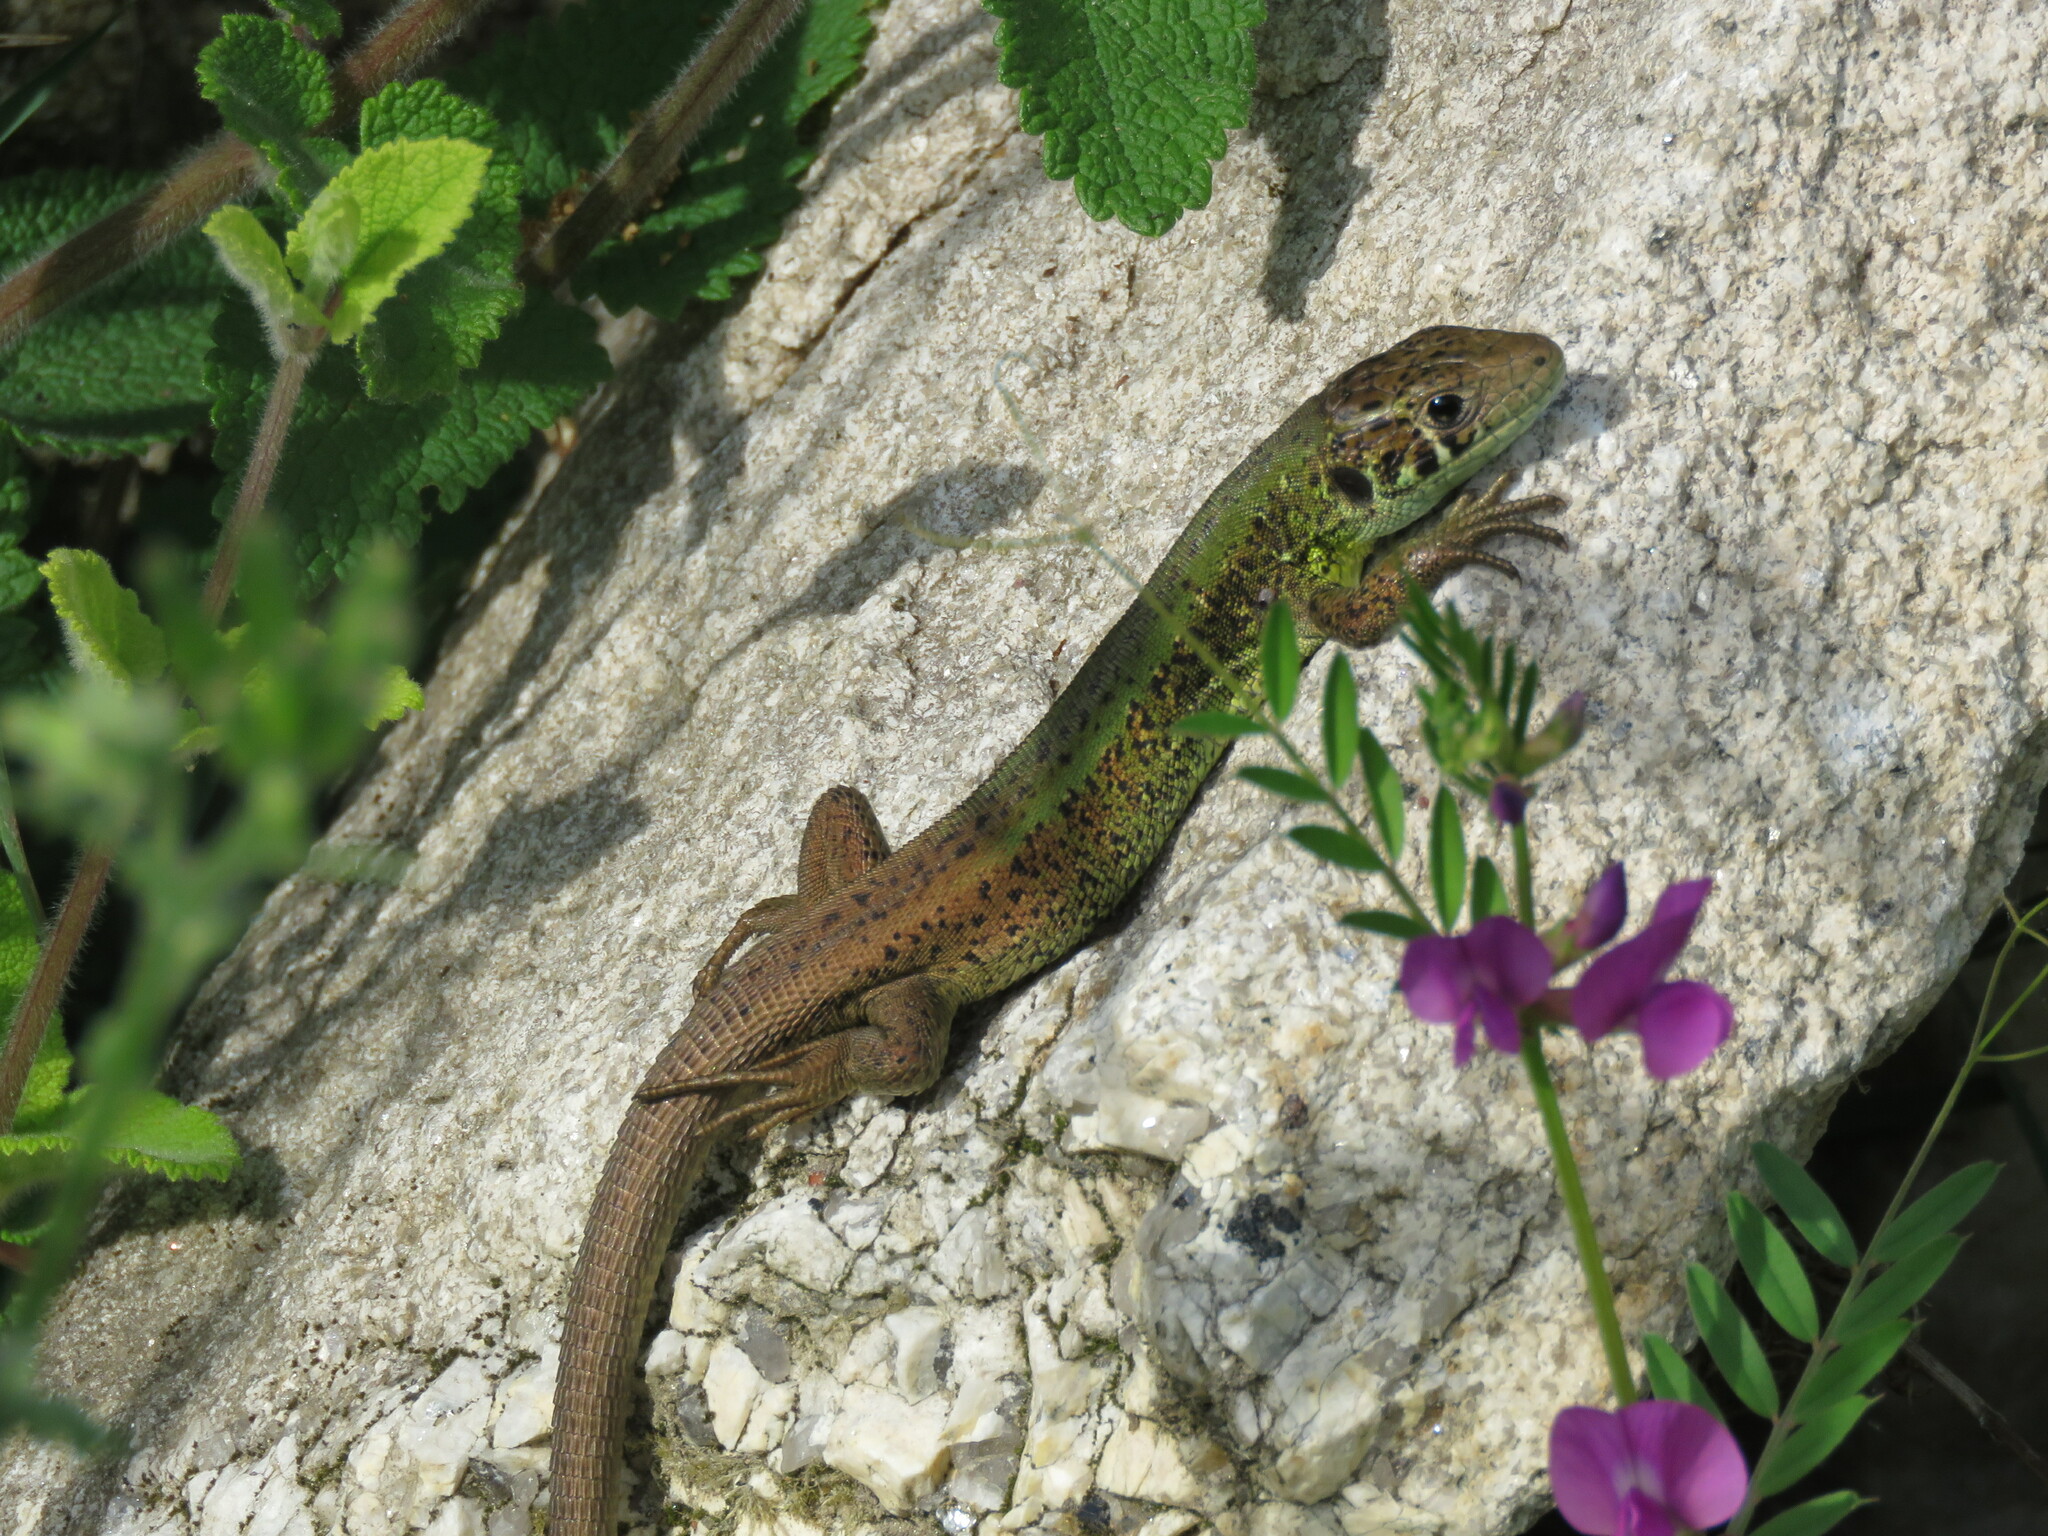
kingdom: Animalia
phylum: Chordata
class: Squamata
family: Lacertidae
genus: Lacerta
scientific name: Lacerta schreiberi
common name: Iberian emerald lizard
